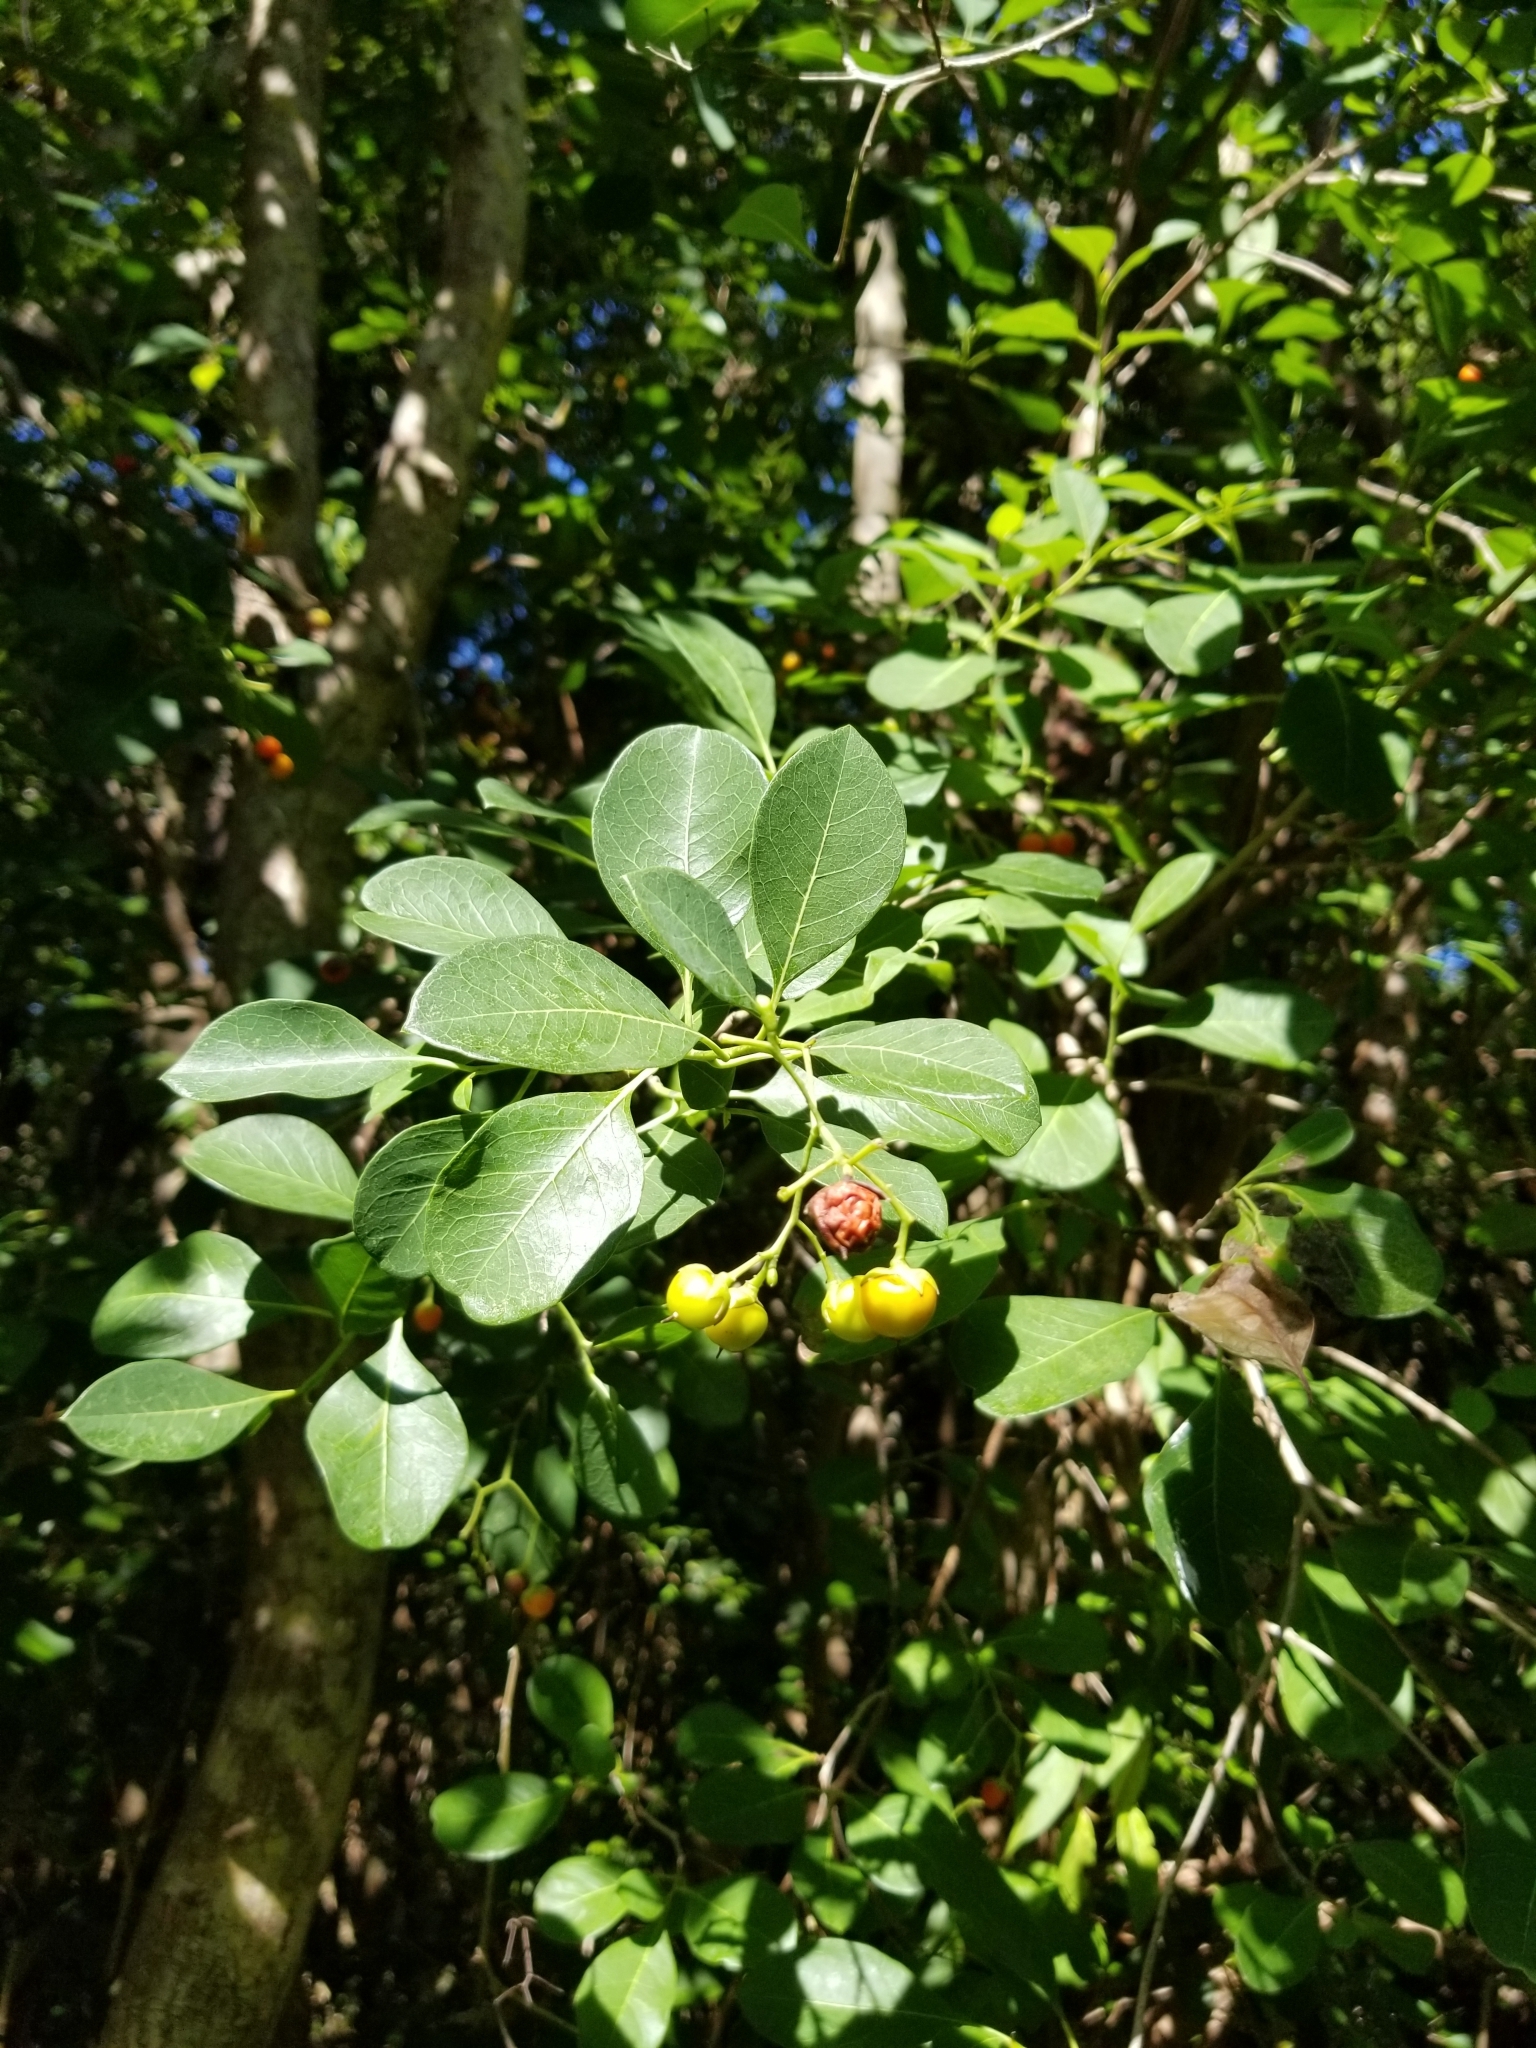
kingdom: Plantae
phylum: Tracheophyta
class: Magnoliopsida
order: Boraginales
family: Ehretiaceae
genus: Bourreria
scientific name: Bourreria succulenta
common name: Cherry
